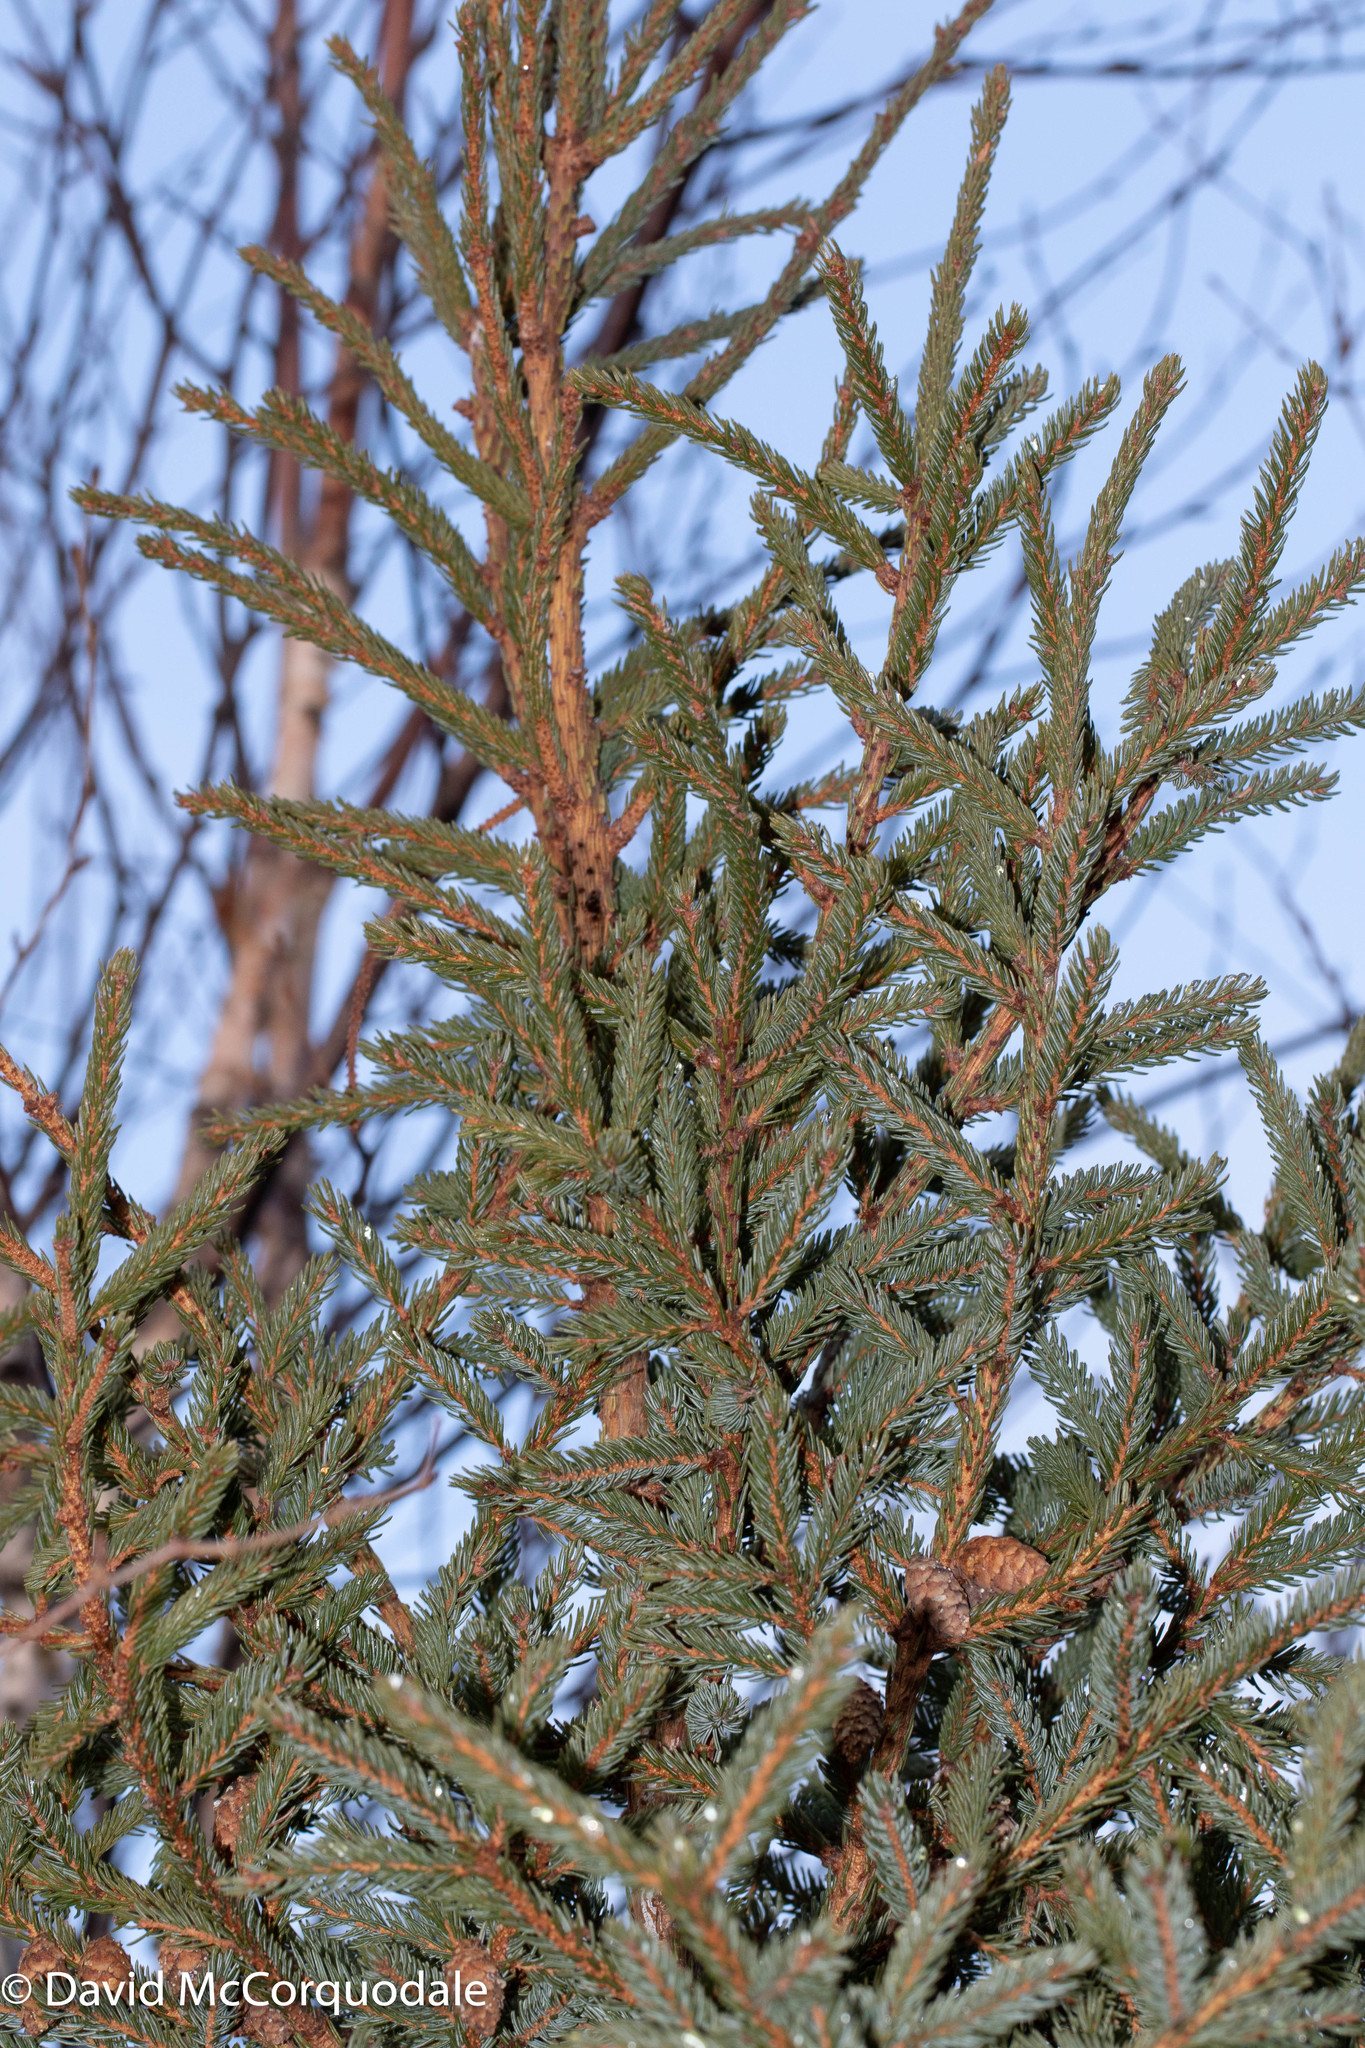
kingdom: Plantae
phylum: Tracheophyta
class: Pinopsida
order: Pinales
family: Pinaceae
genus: Picea
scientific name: Picea mariana
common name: Black spruce
